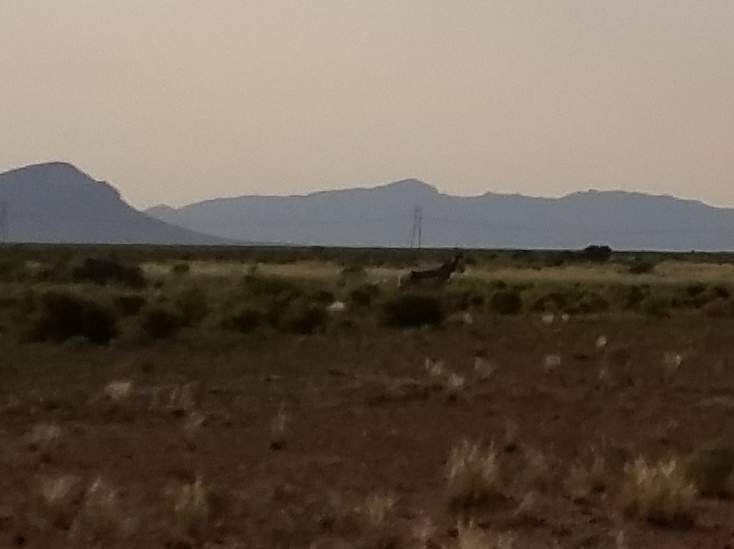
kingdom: Animalia
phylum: Chordata
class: Mammalia
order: Artiodactyla
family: Antilocapridae
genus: Antilocapra
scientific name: Antilocapra americana
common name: Pronghorn
